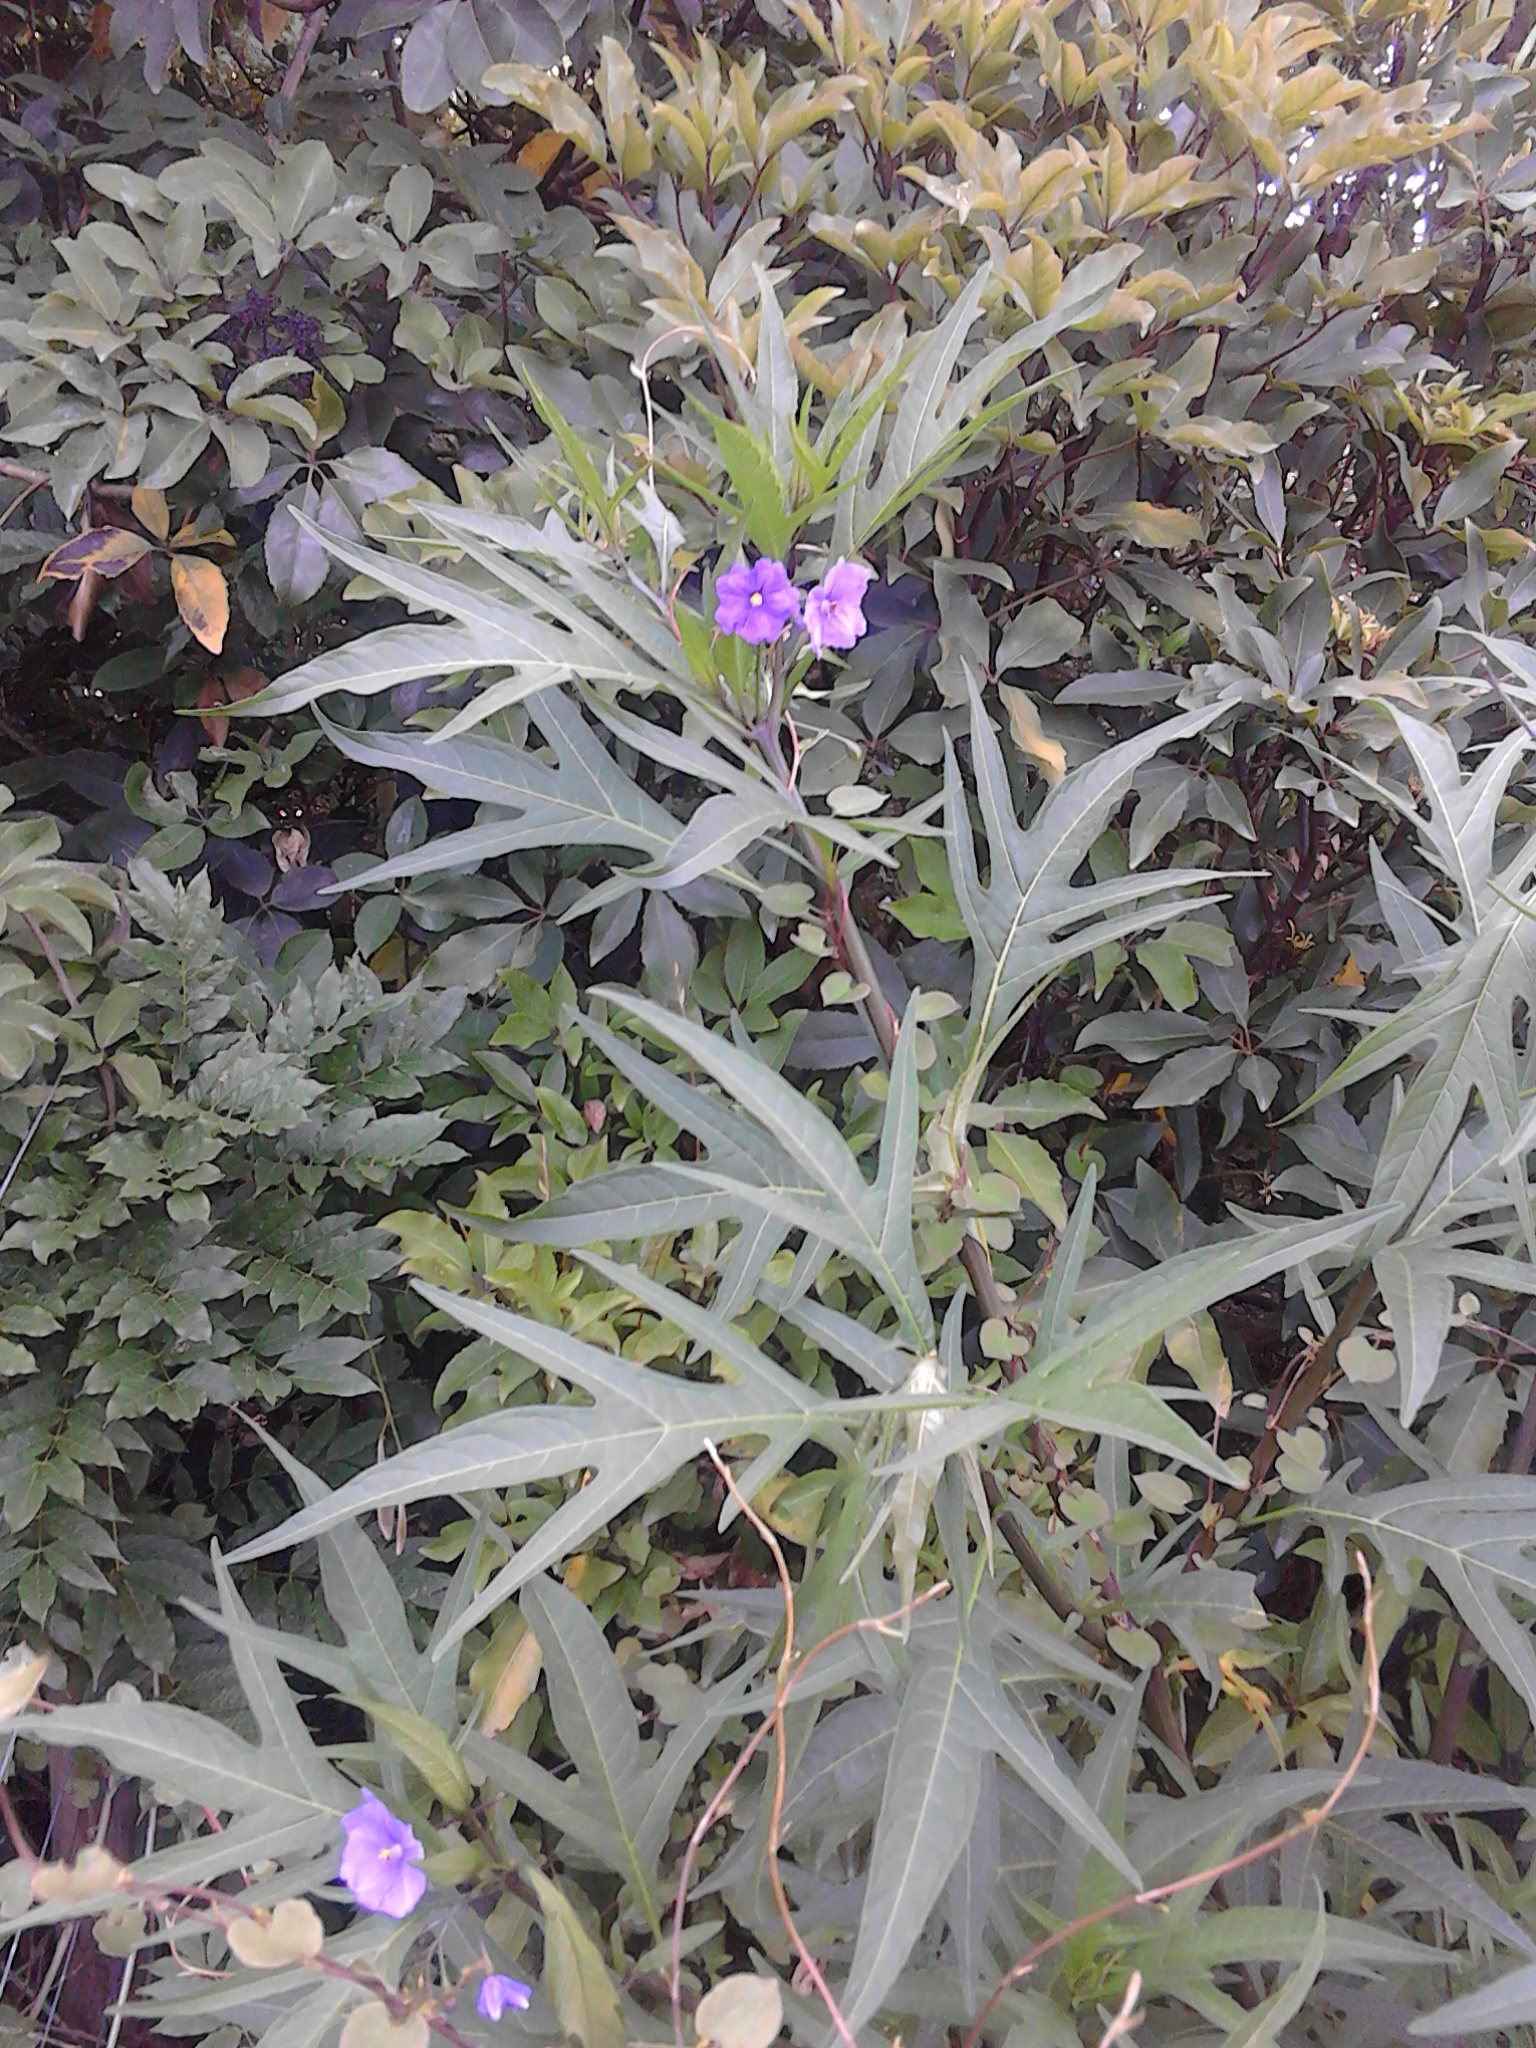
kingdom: Plantae
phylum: Tracheophyta
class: Magnoliopsida
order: Solanales
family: Solanaceae
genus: Solanum
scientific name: Solanum laciniatum
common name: Kangaroo-apple
